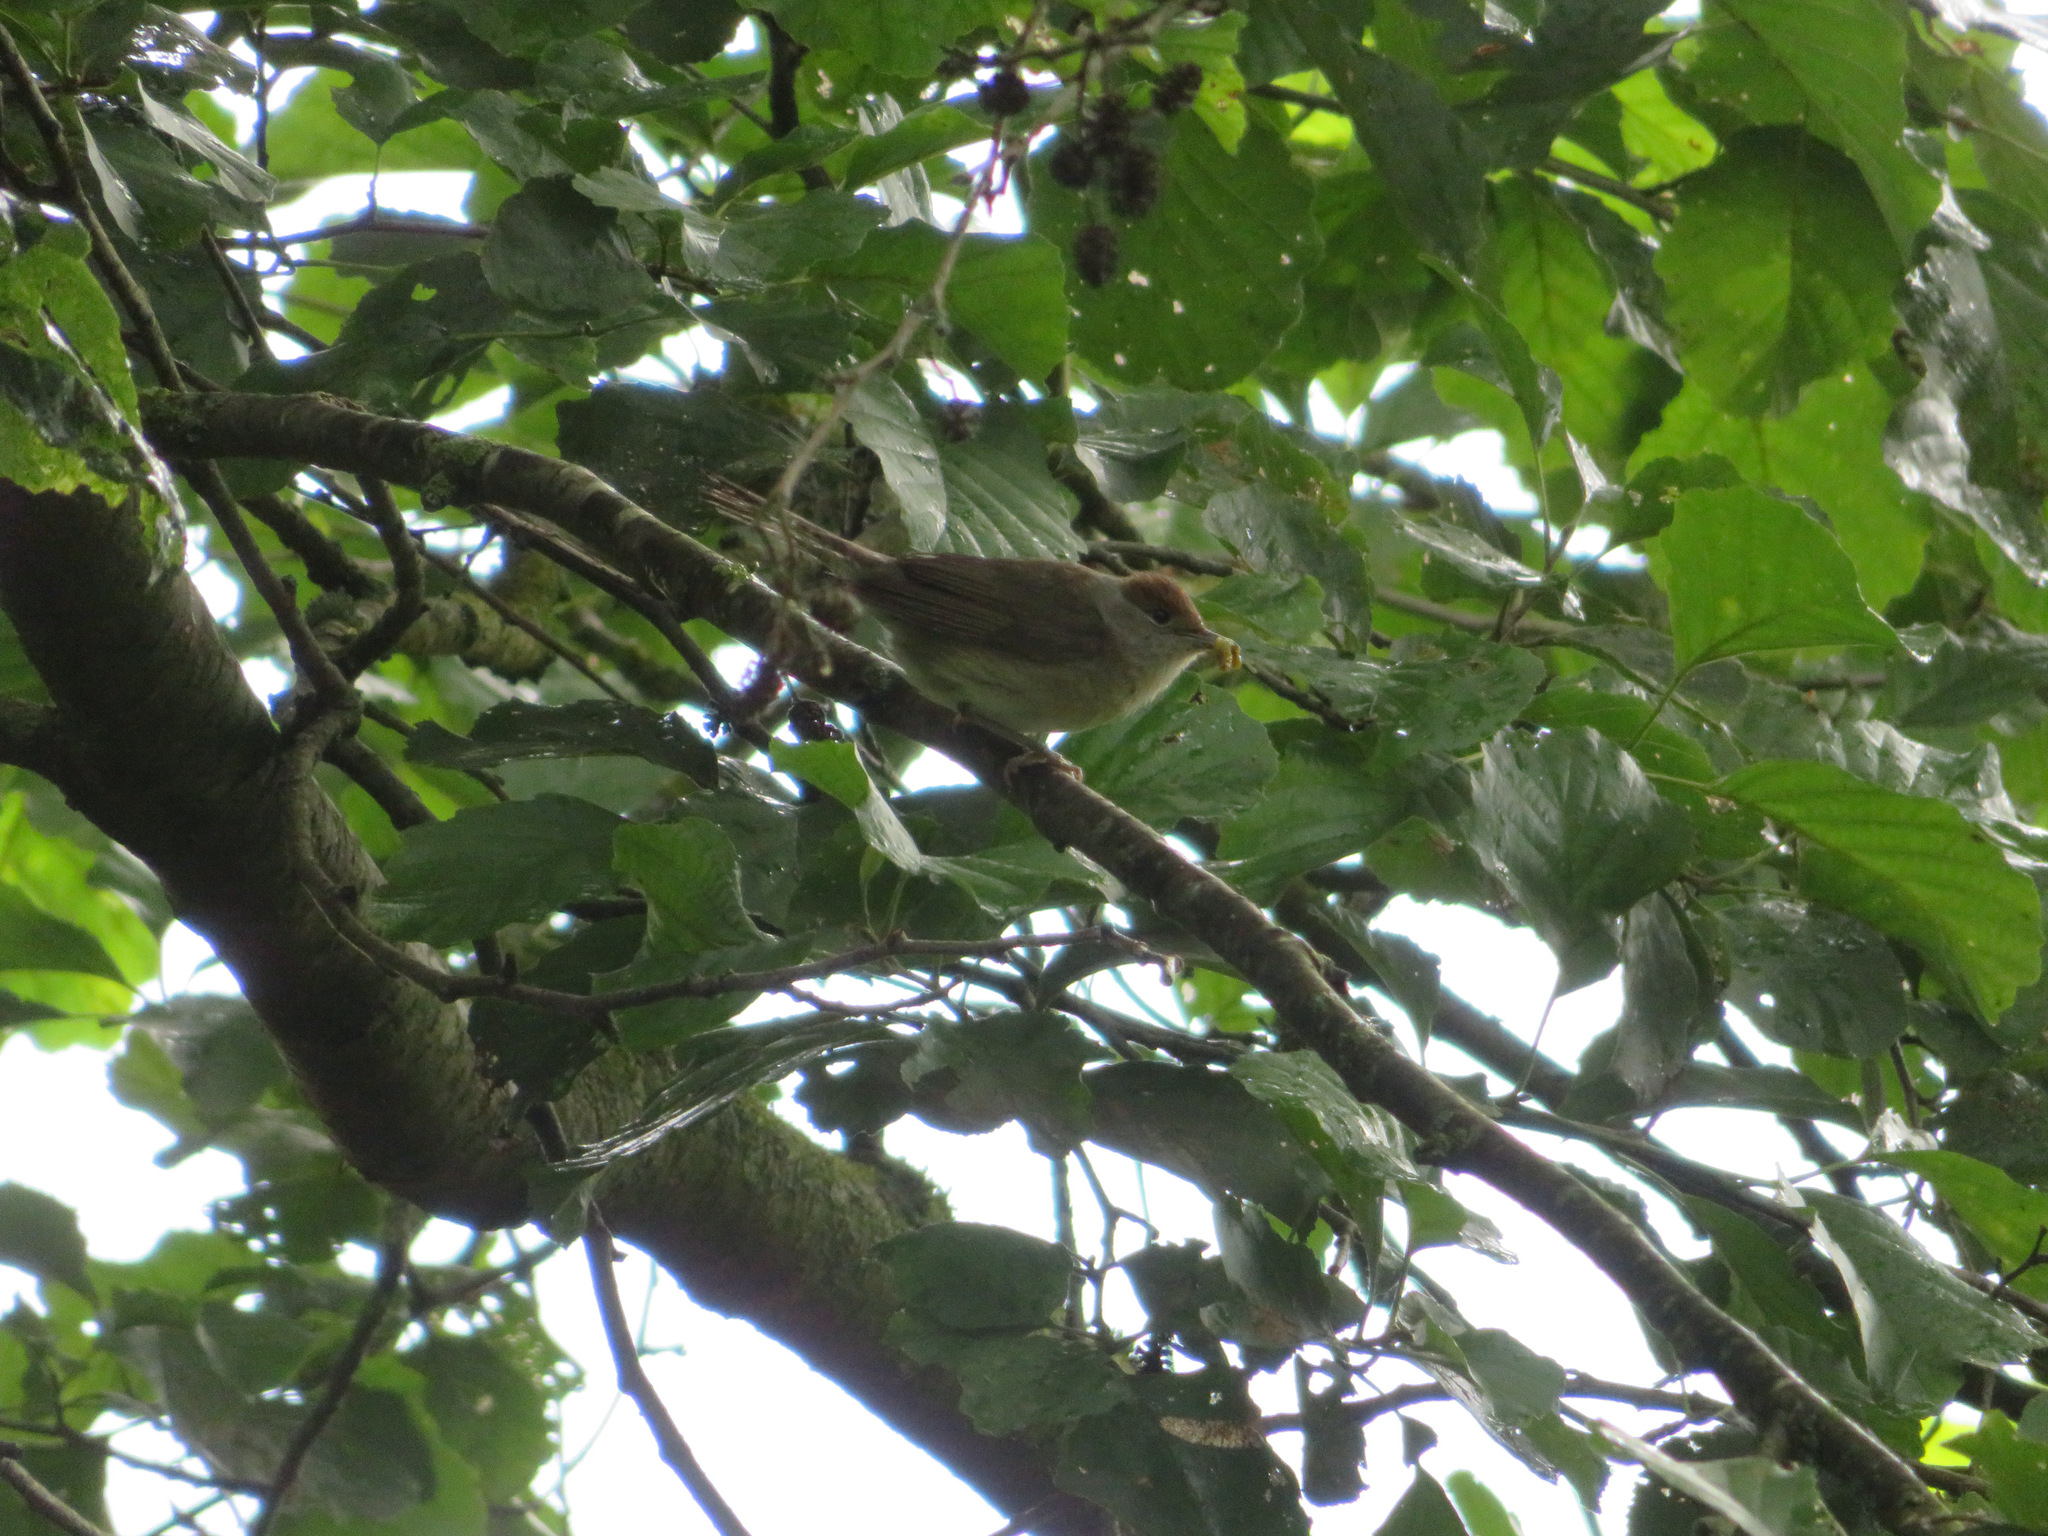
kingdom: Animalia
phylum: Chordata
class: Aves
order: Passeriformes
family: Sylviidae
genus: Sylvia
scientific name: Sylvia atricapilla
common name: Eurasian blackcap
